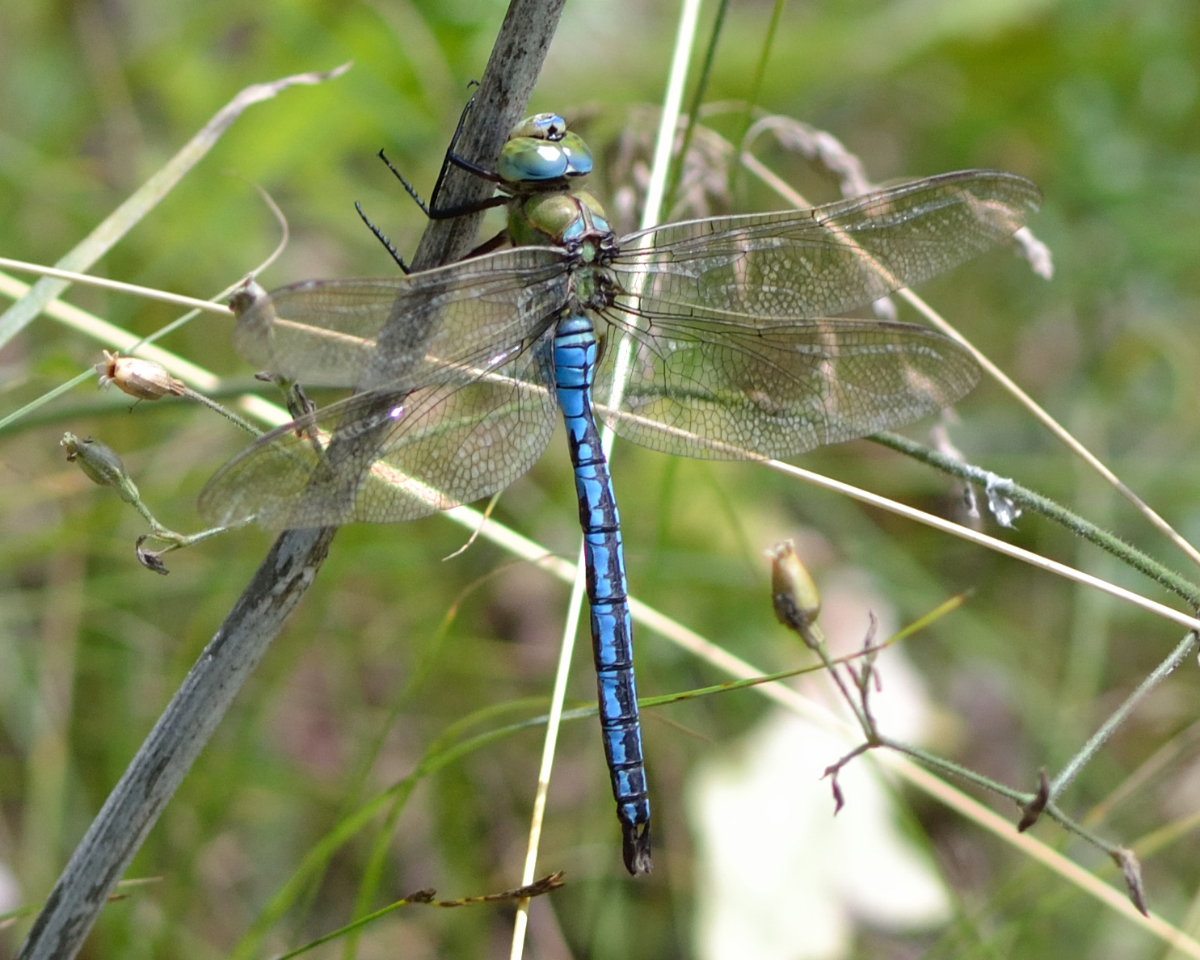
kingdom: Animalia
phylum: Arthropoda
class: Insecta
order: Odonata
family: Aeshnidae
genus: Anax
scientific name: Anax imperator
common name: Emperor dragonfly
